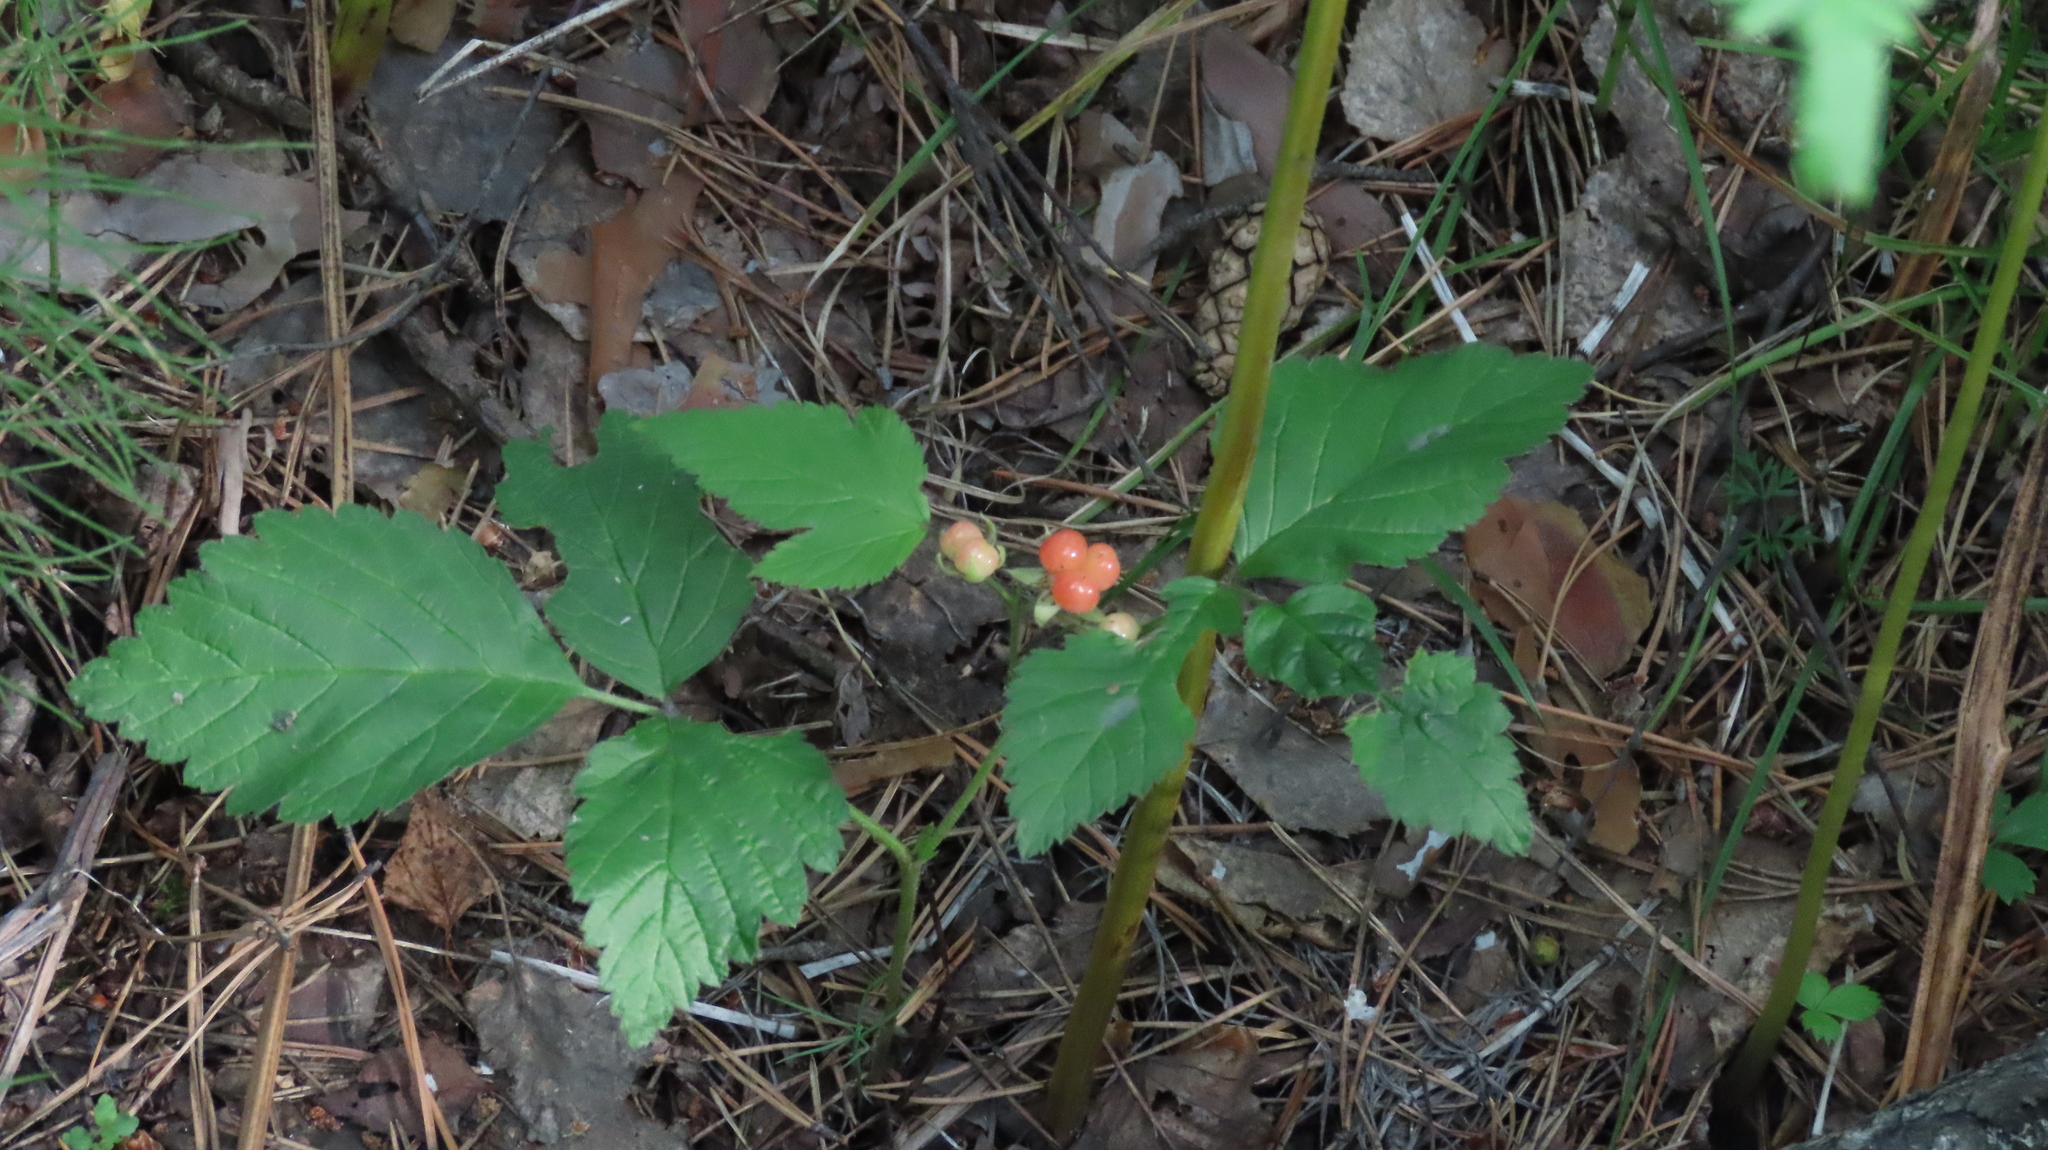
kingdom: Plantae
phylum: Tracheophyta
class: Magnoliopsida
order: Rosales
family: Rosaceae
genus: Rubus
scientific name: Rubus saxatilis
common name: Stone bramble
